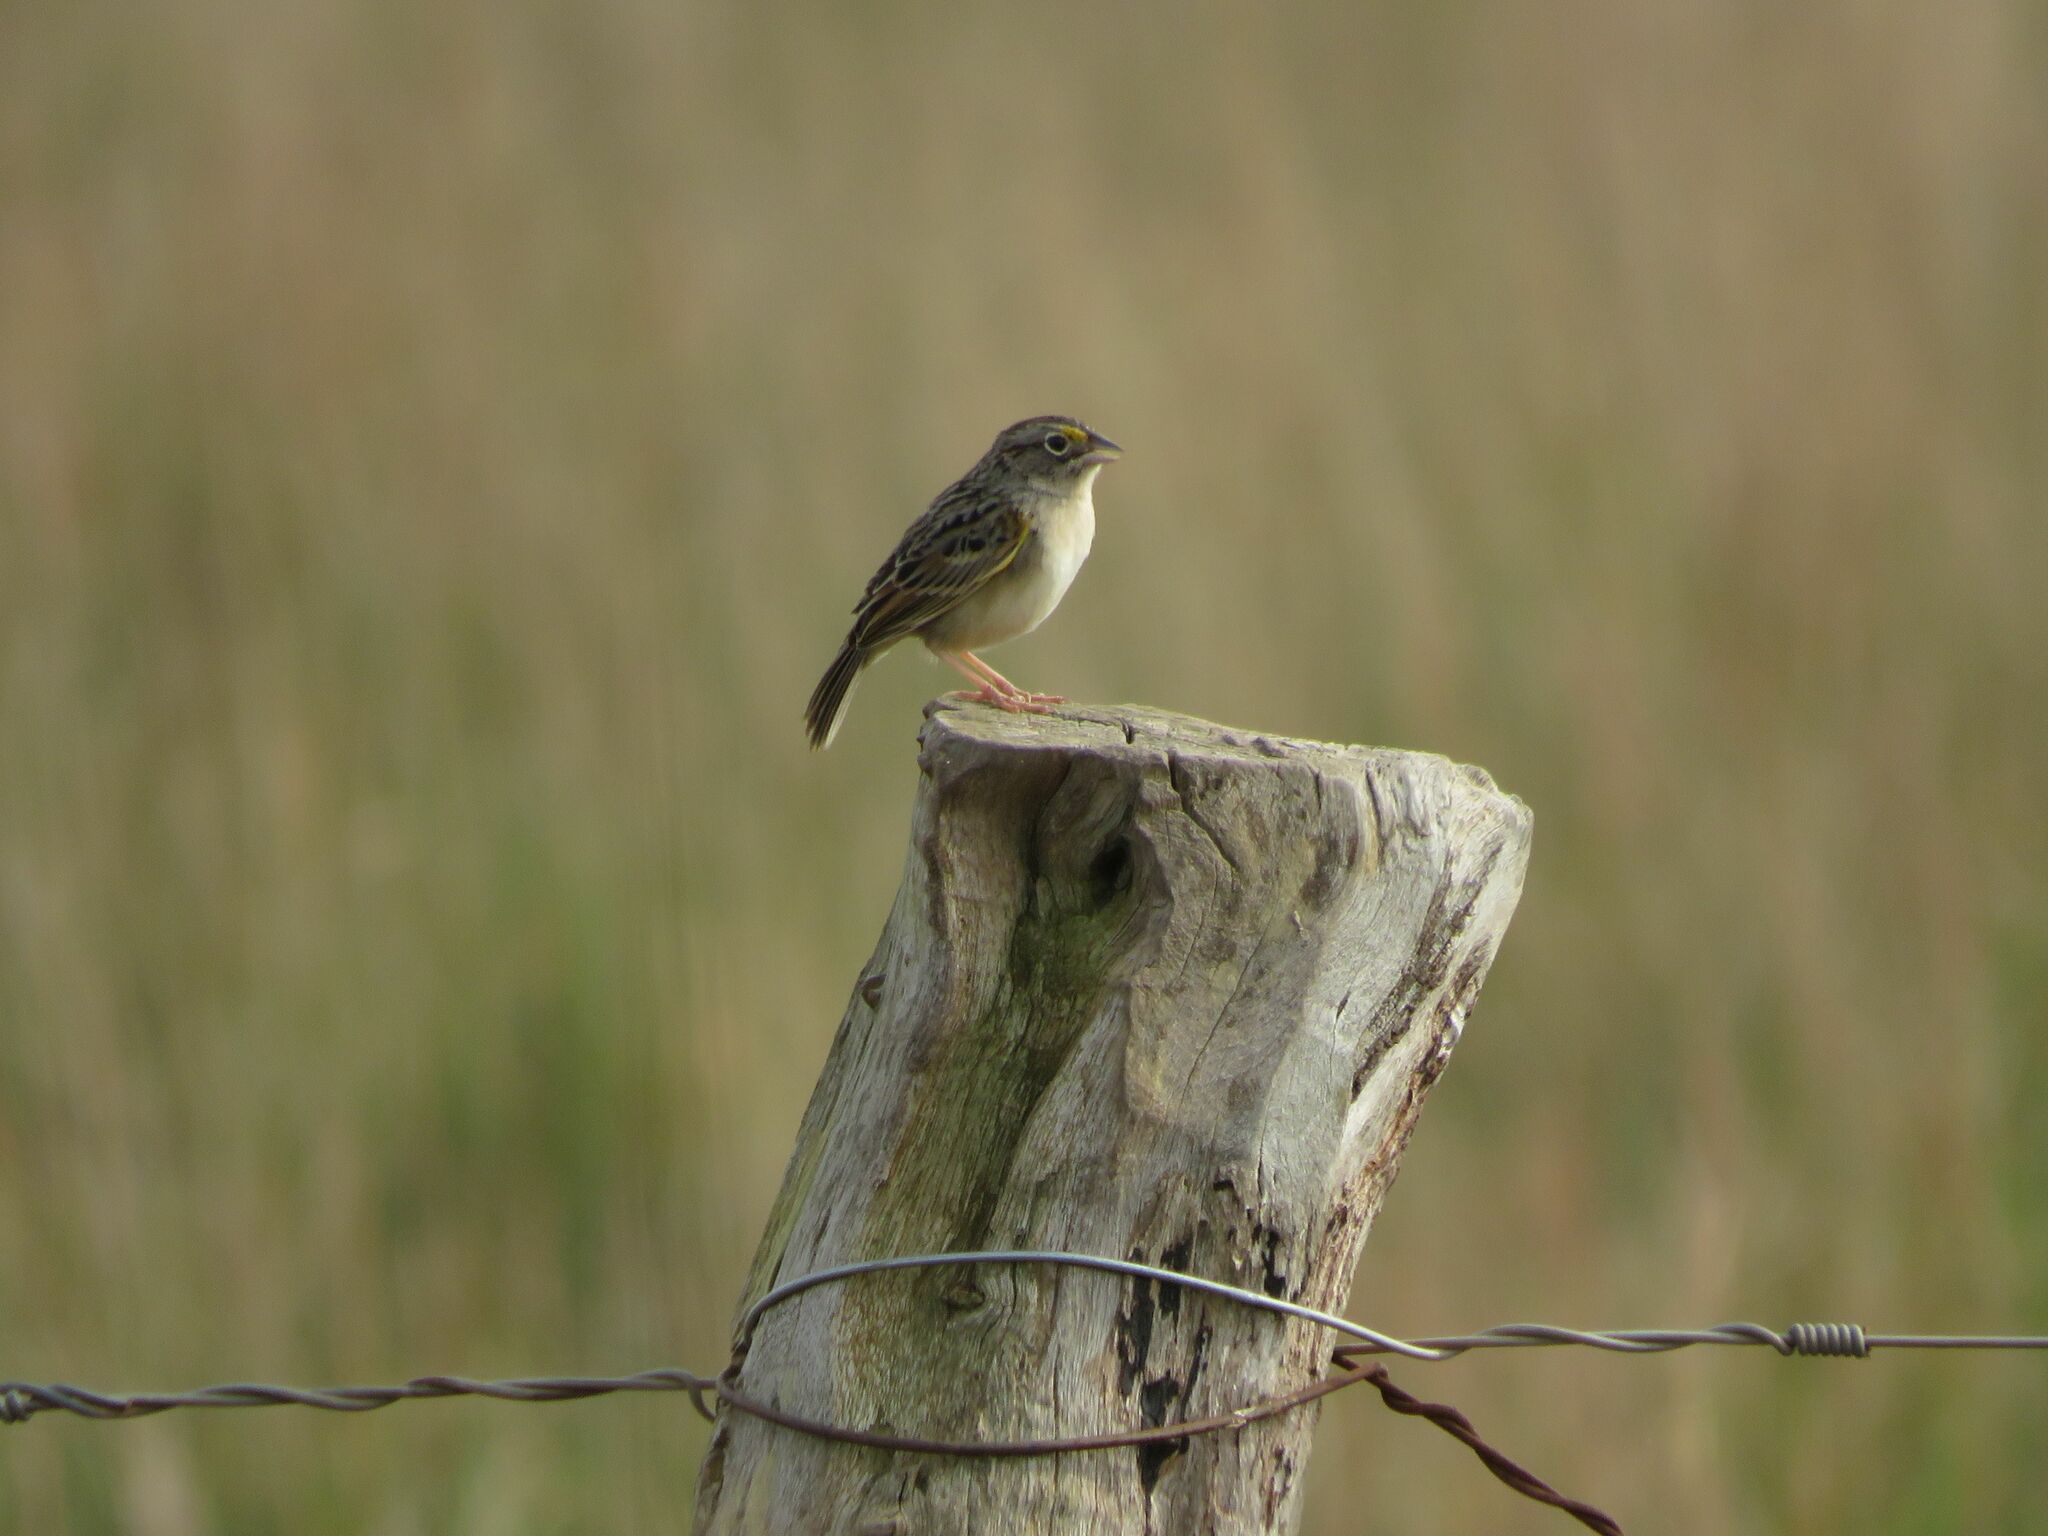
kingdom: Animalia
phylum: Chordata
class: Aves
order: Passeriformes
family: Passerellidae
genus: Ammodramus
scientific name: Ammodramus humeralis
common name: Grassland sparrow
